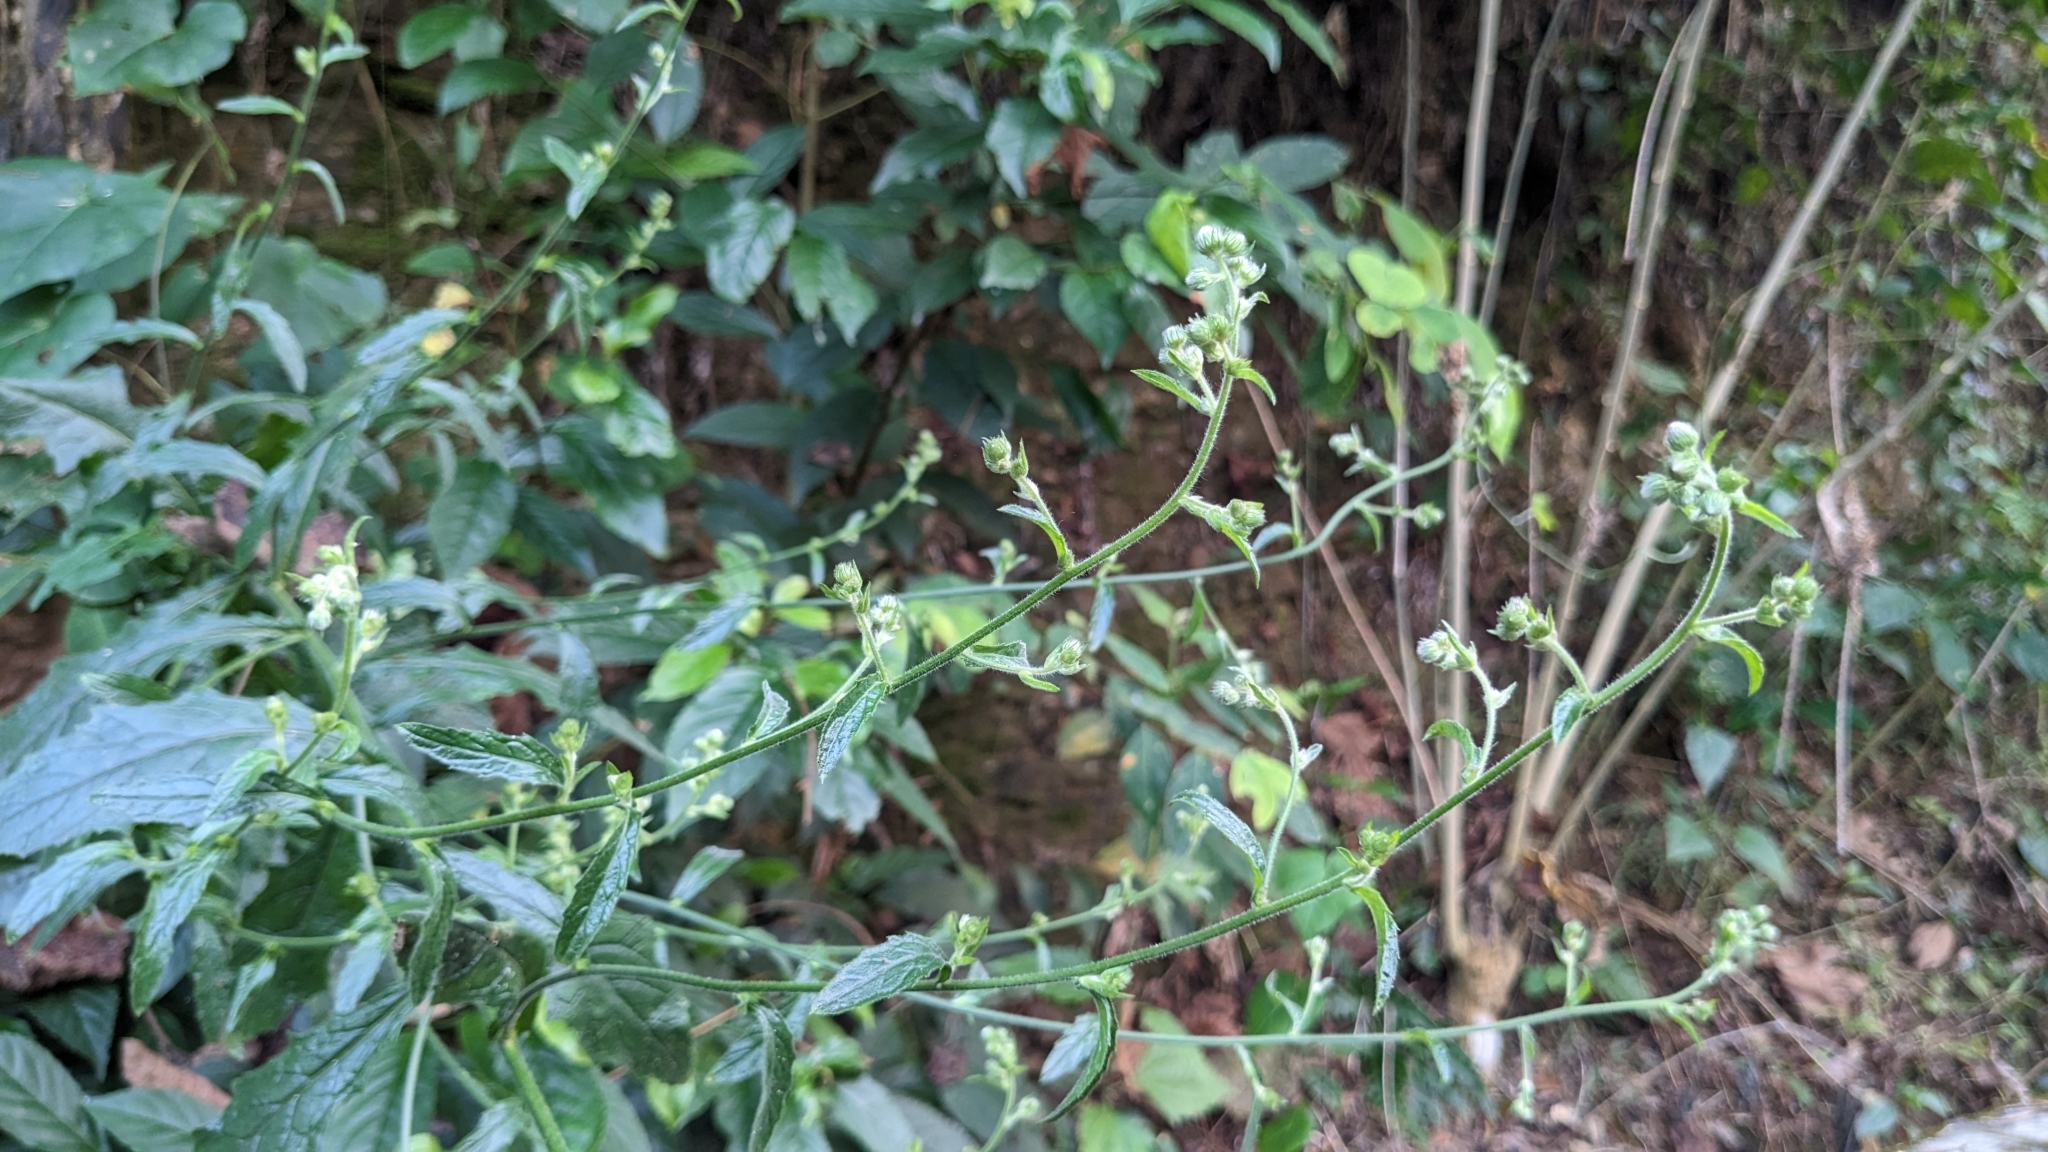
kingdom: Plantae
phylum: Tracheophyta
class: Magnoliopsida
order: Asterales
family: Asteraceae
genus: Blumea
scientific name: Blumea sinuata
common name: Cutleaf false oxtongue
